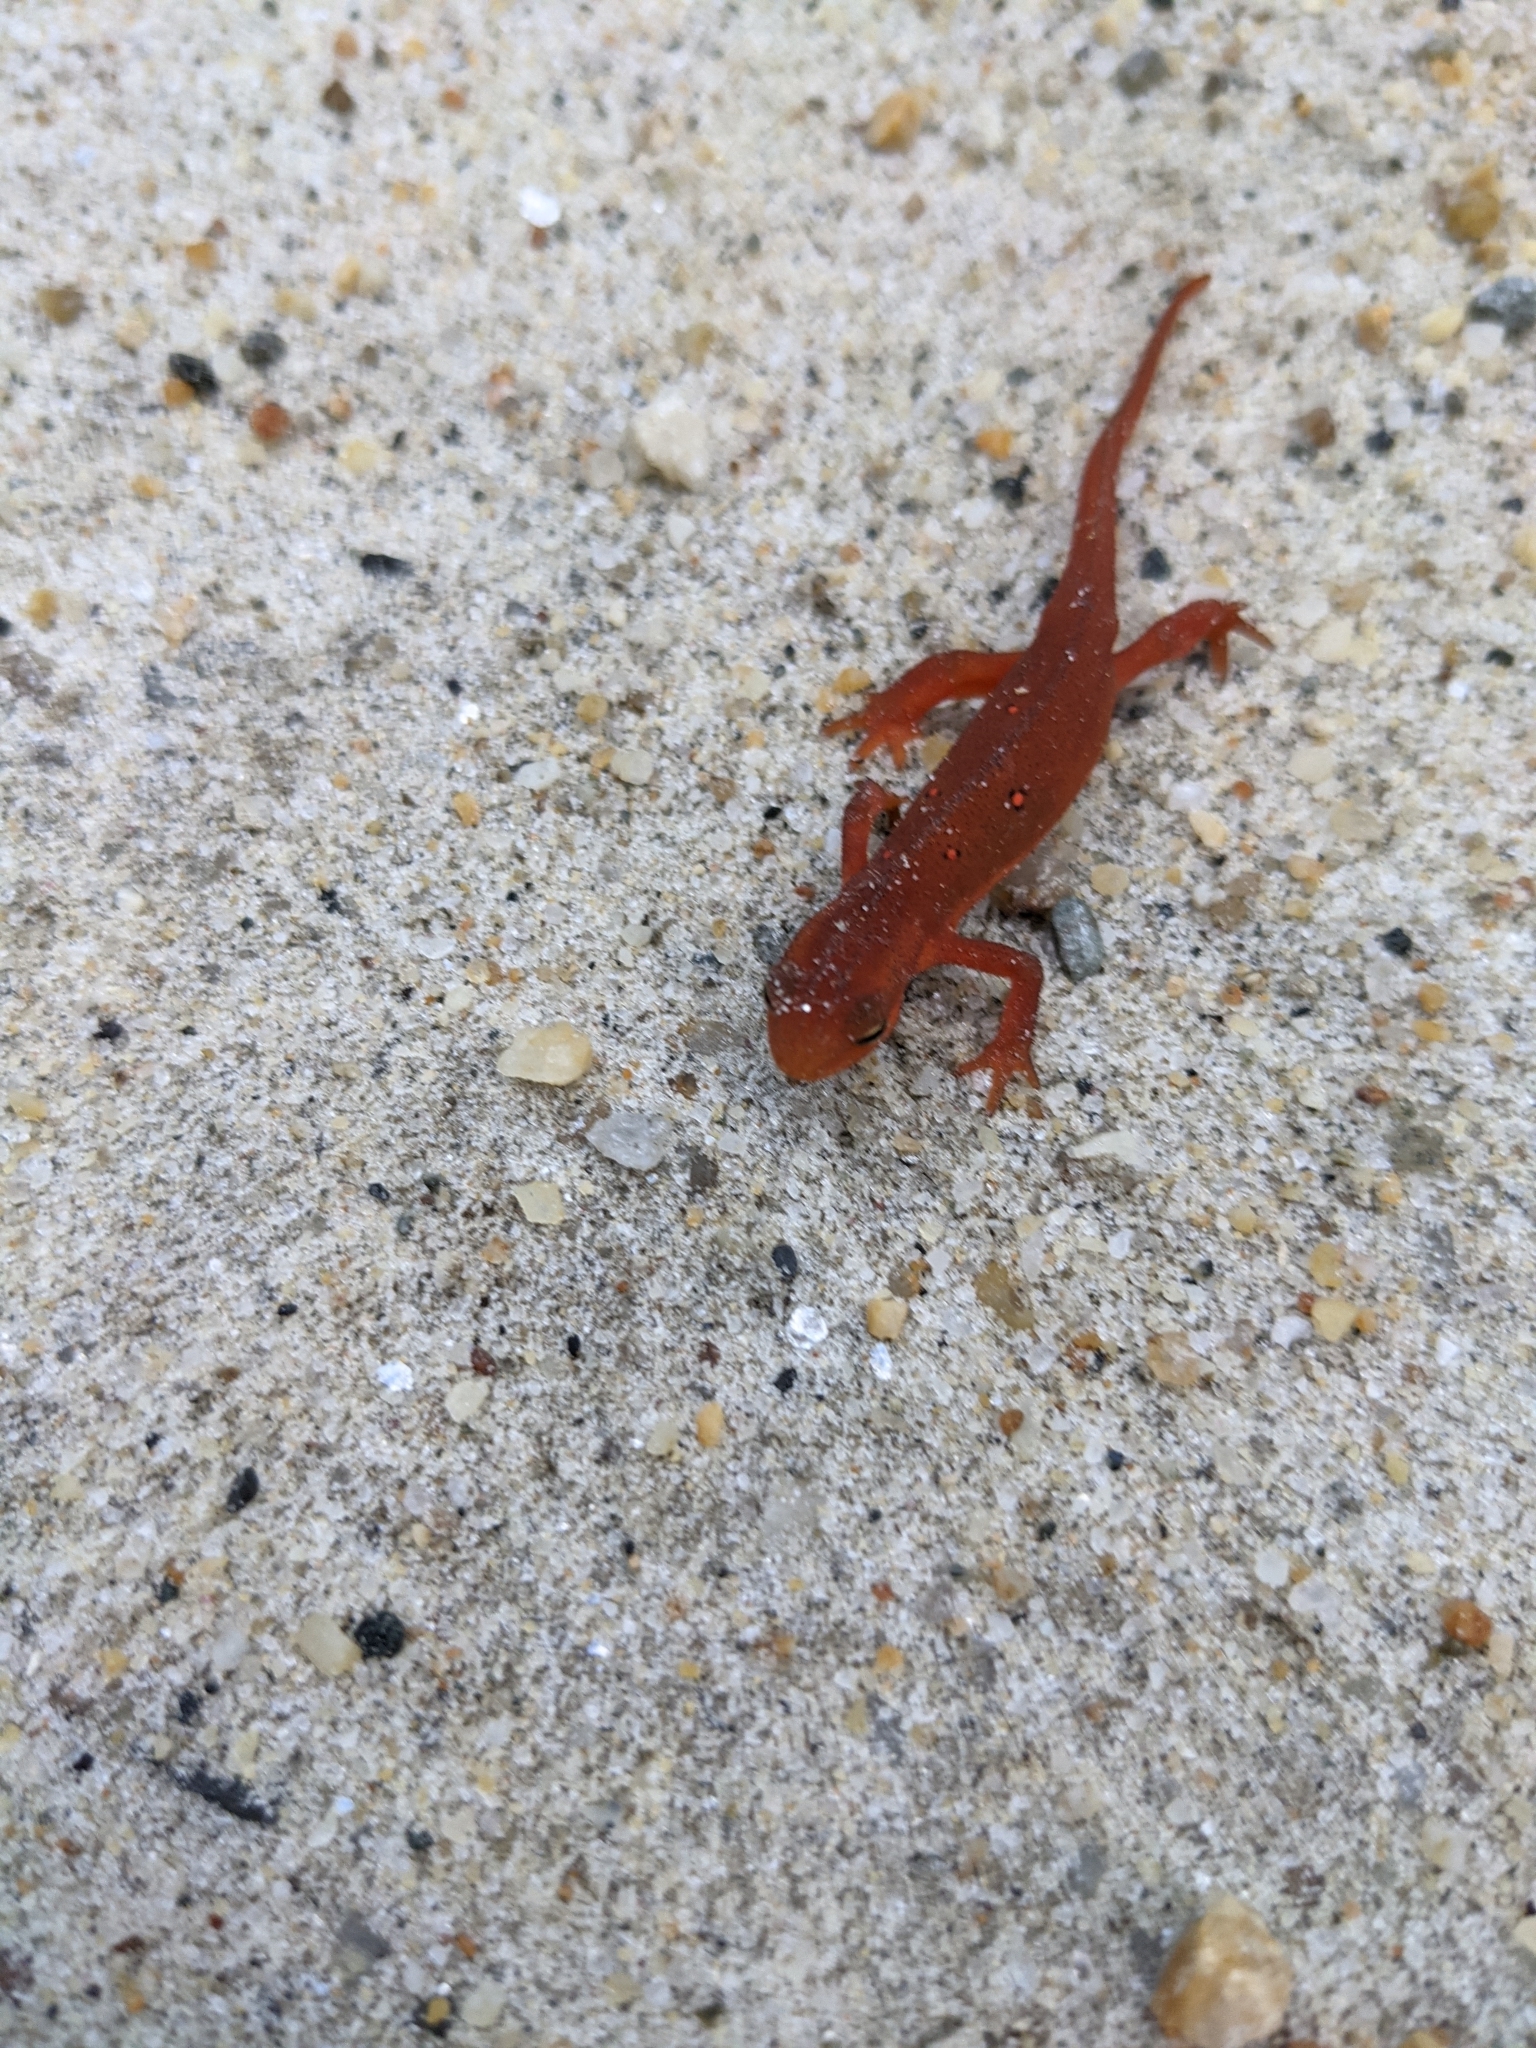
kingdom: Animalia
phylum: Chordata
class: Amphibia
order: Caudata
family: Salamandridae
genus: Notophthalmus
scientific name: Notophthalmus viridescens
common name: Eastern newt
